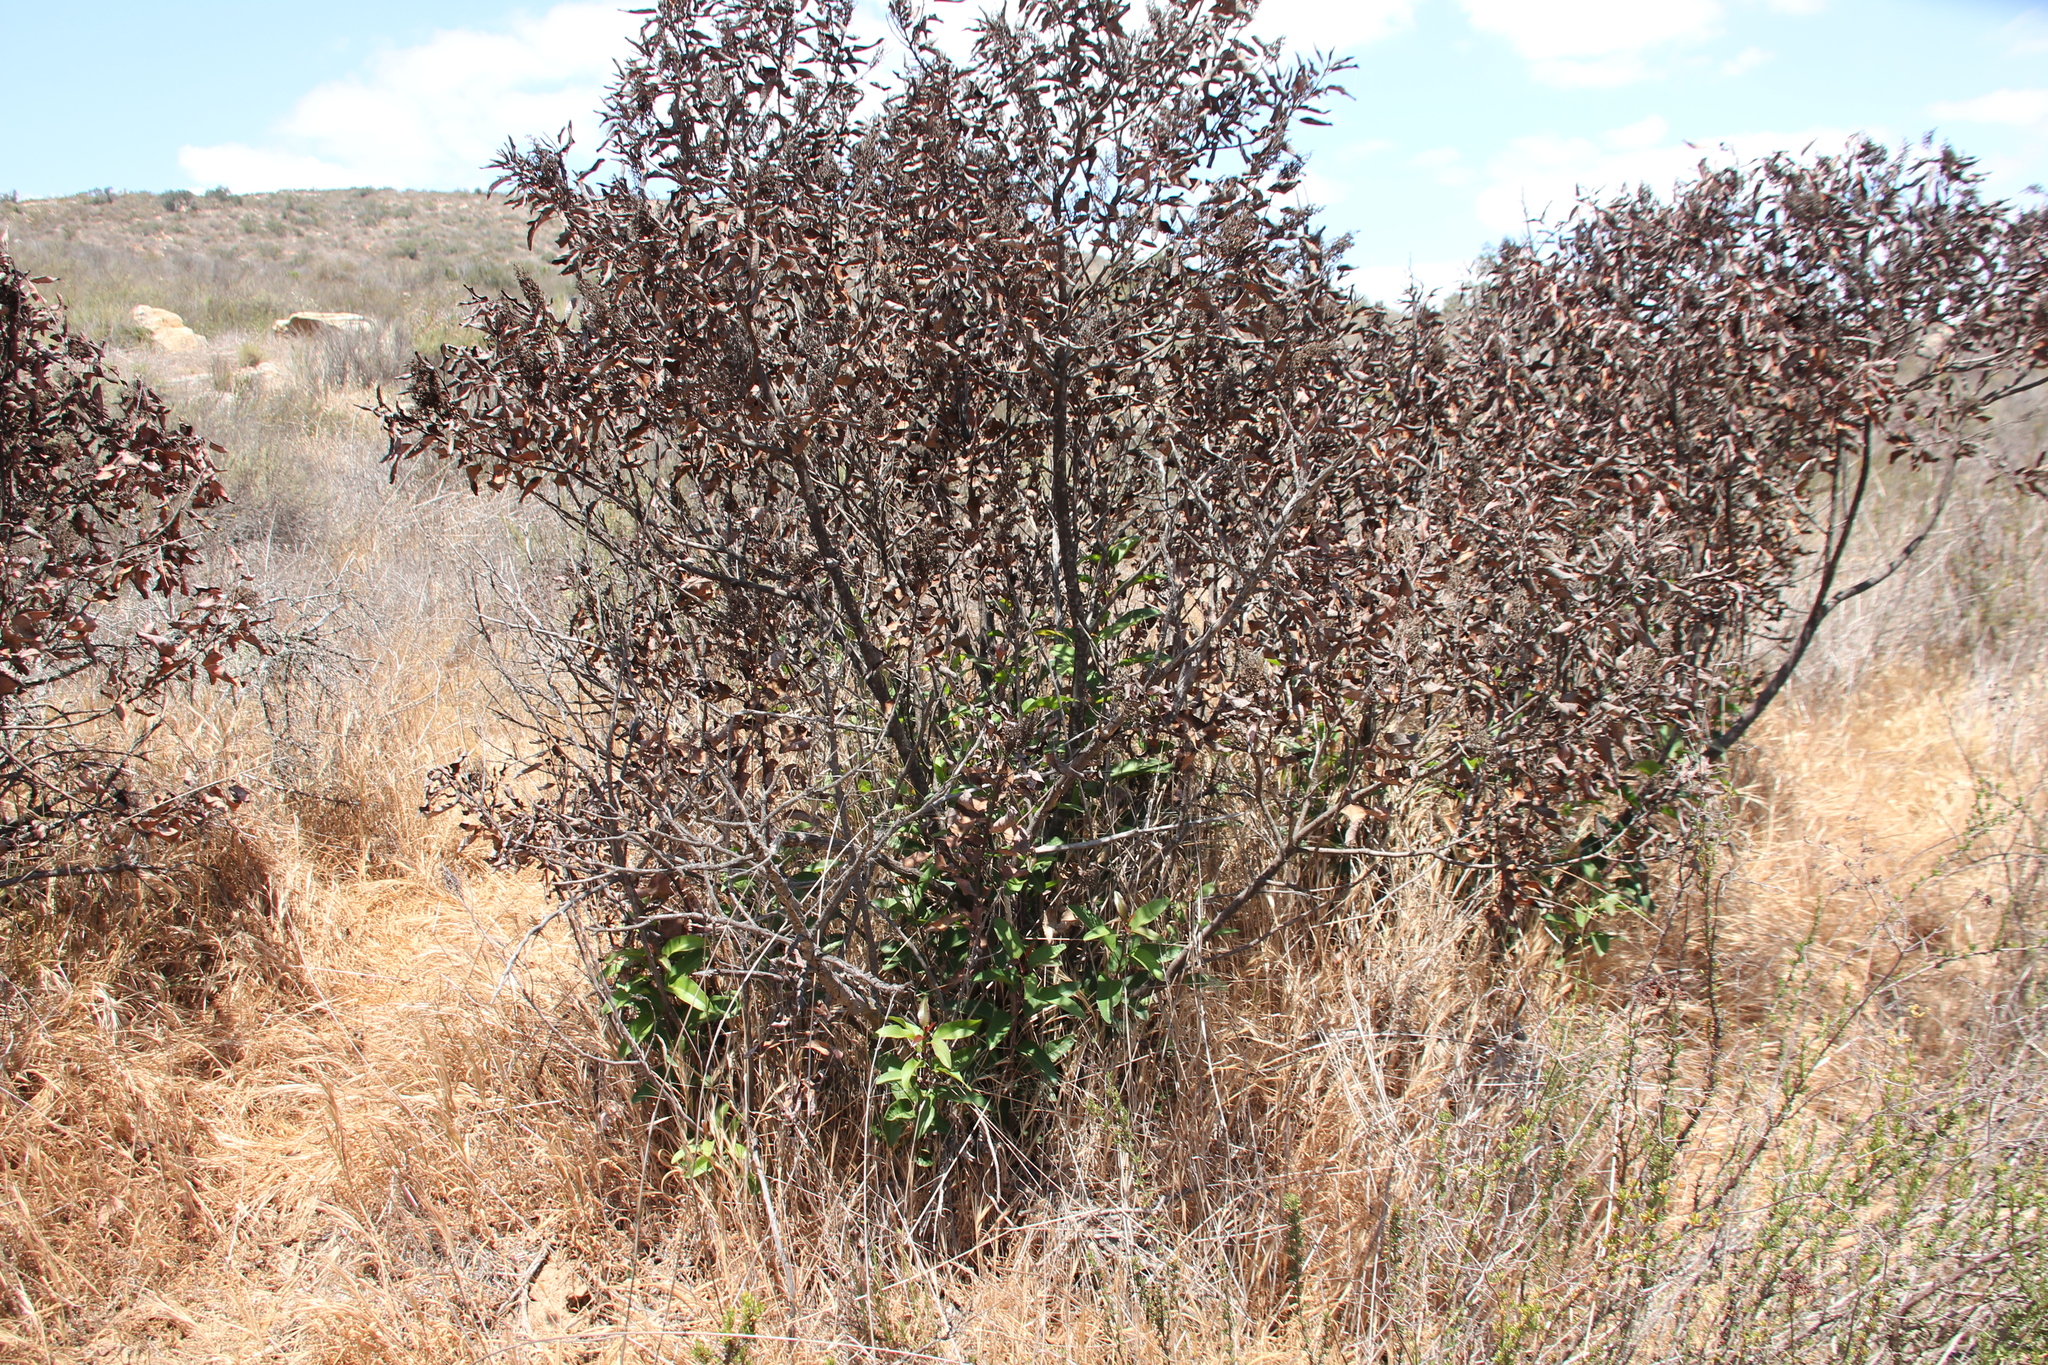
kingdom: Plantae
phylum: Tracheophyta
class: Magnoliopsida
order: Sapindales
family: Anacardiaceae
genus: Malosma
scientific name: Malosma laurina
